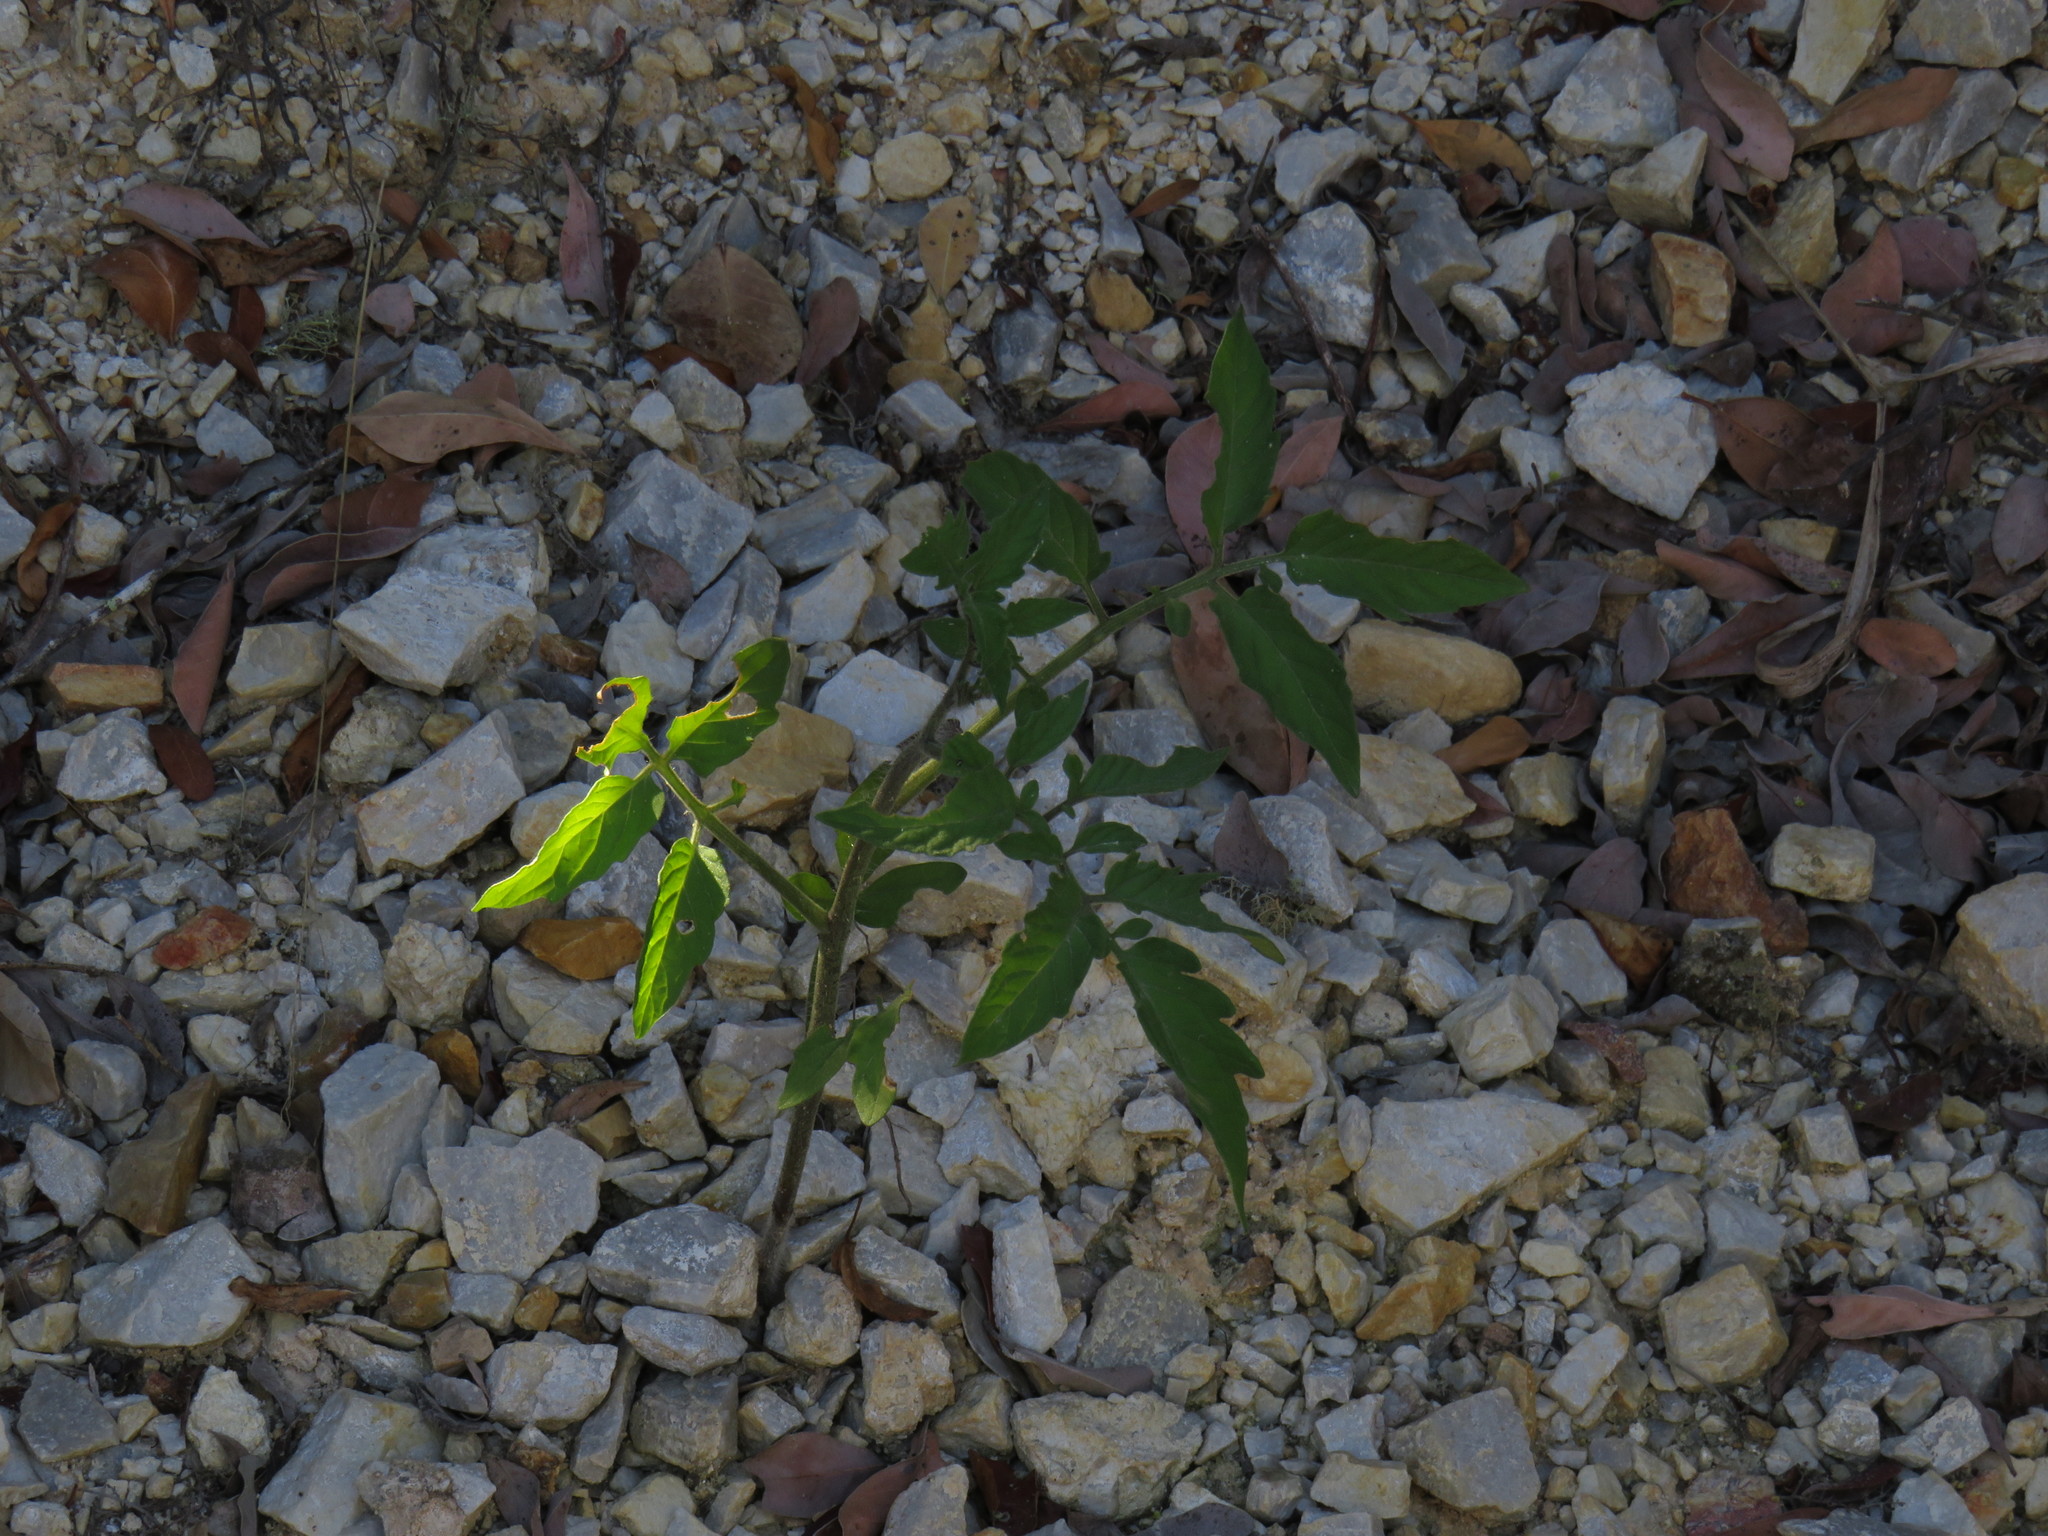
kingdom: Plantae
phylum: Tracheophyta
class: Magnoliopsida
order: Solanales
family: Solanaceae
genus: Solanum
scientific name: Solanum lycopersicum
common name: Garden tomato
